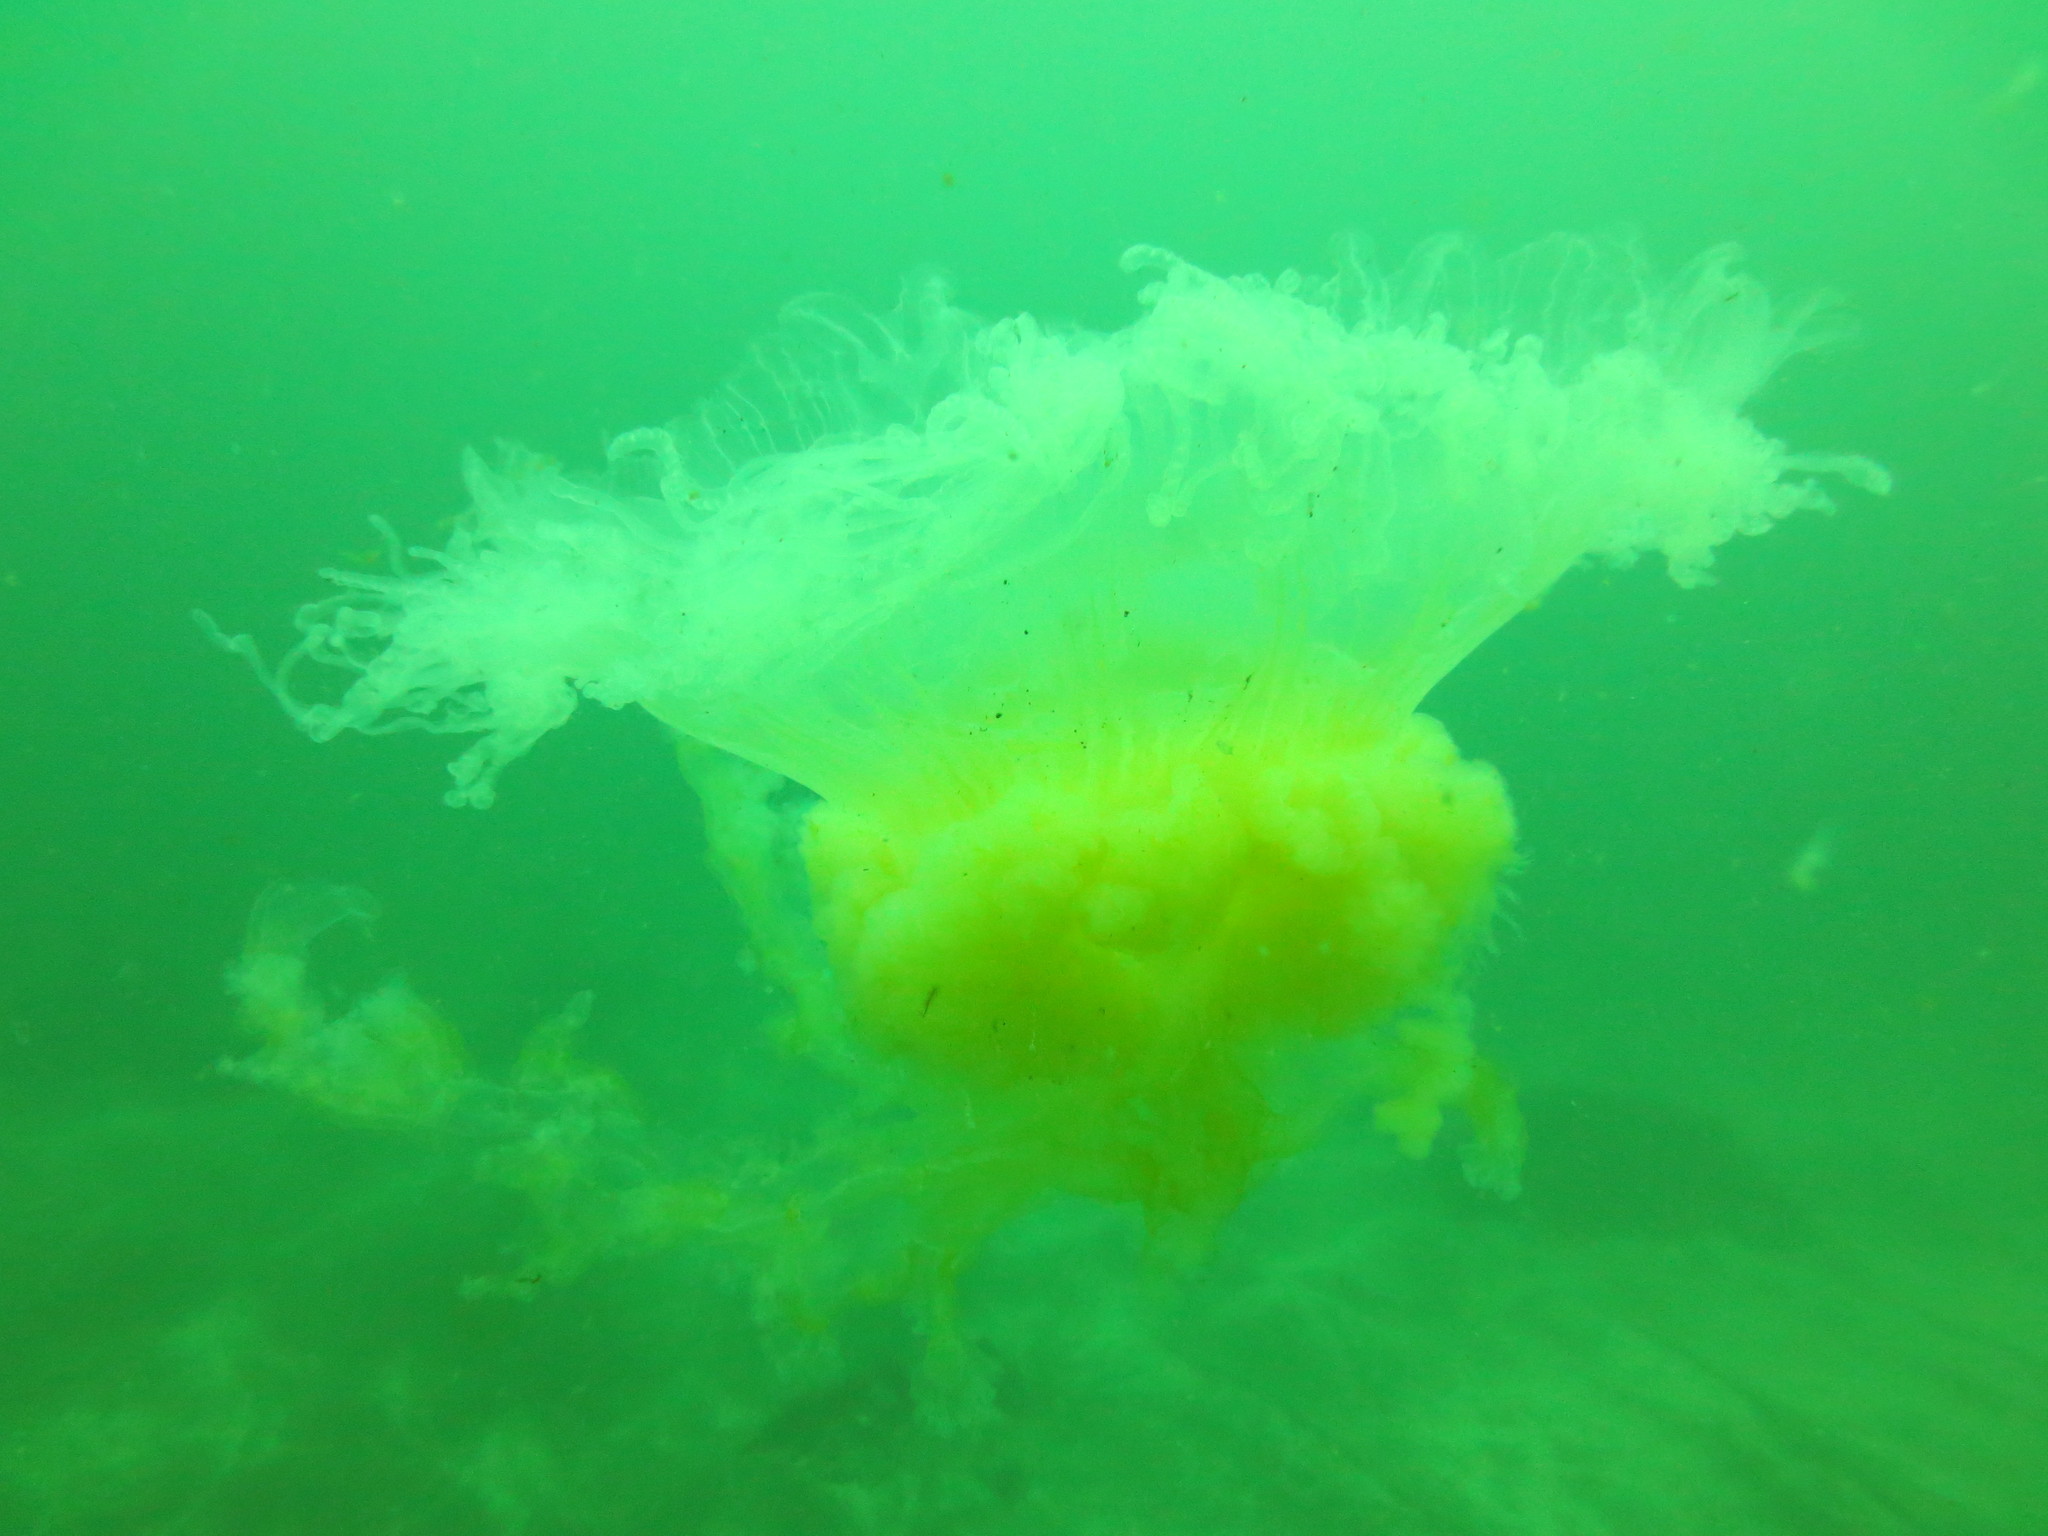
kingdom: Animalia
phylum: Cnidaria
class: Scyphozoa
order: Semaeostomeae
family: Phacellophoridae
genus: Phacellophora
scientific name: Phacellophora camtschatica
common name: Fried-egg jellyfish
